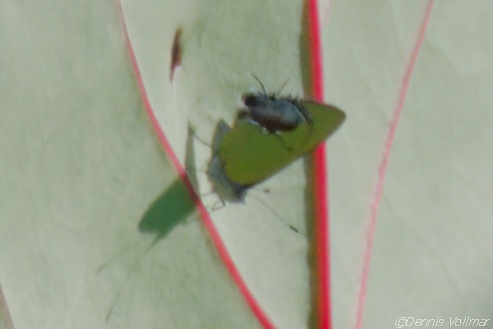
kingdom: Animalia
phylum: Arthropoda
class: Insecta
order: Lepidoptera
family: Lycaenidae
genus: Thecla
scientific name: Thecla maesites
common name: Verde azul hairstreak
